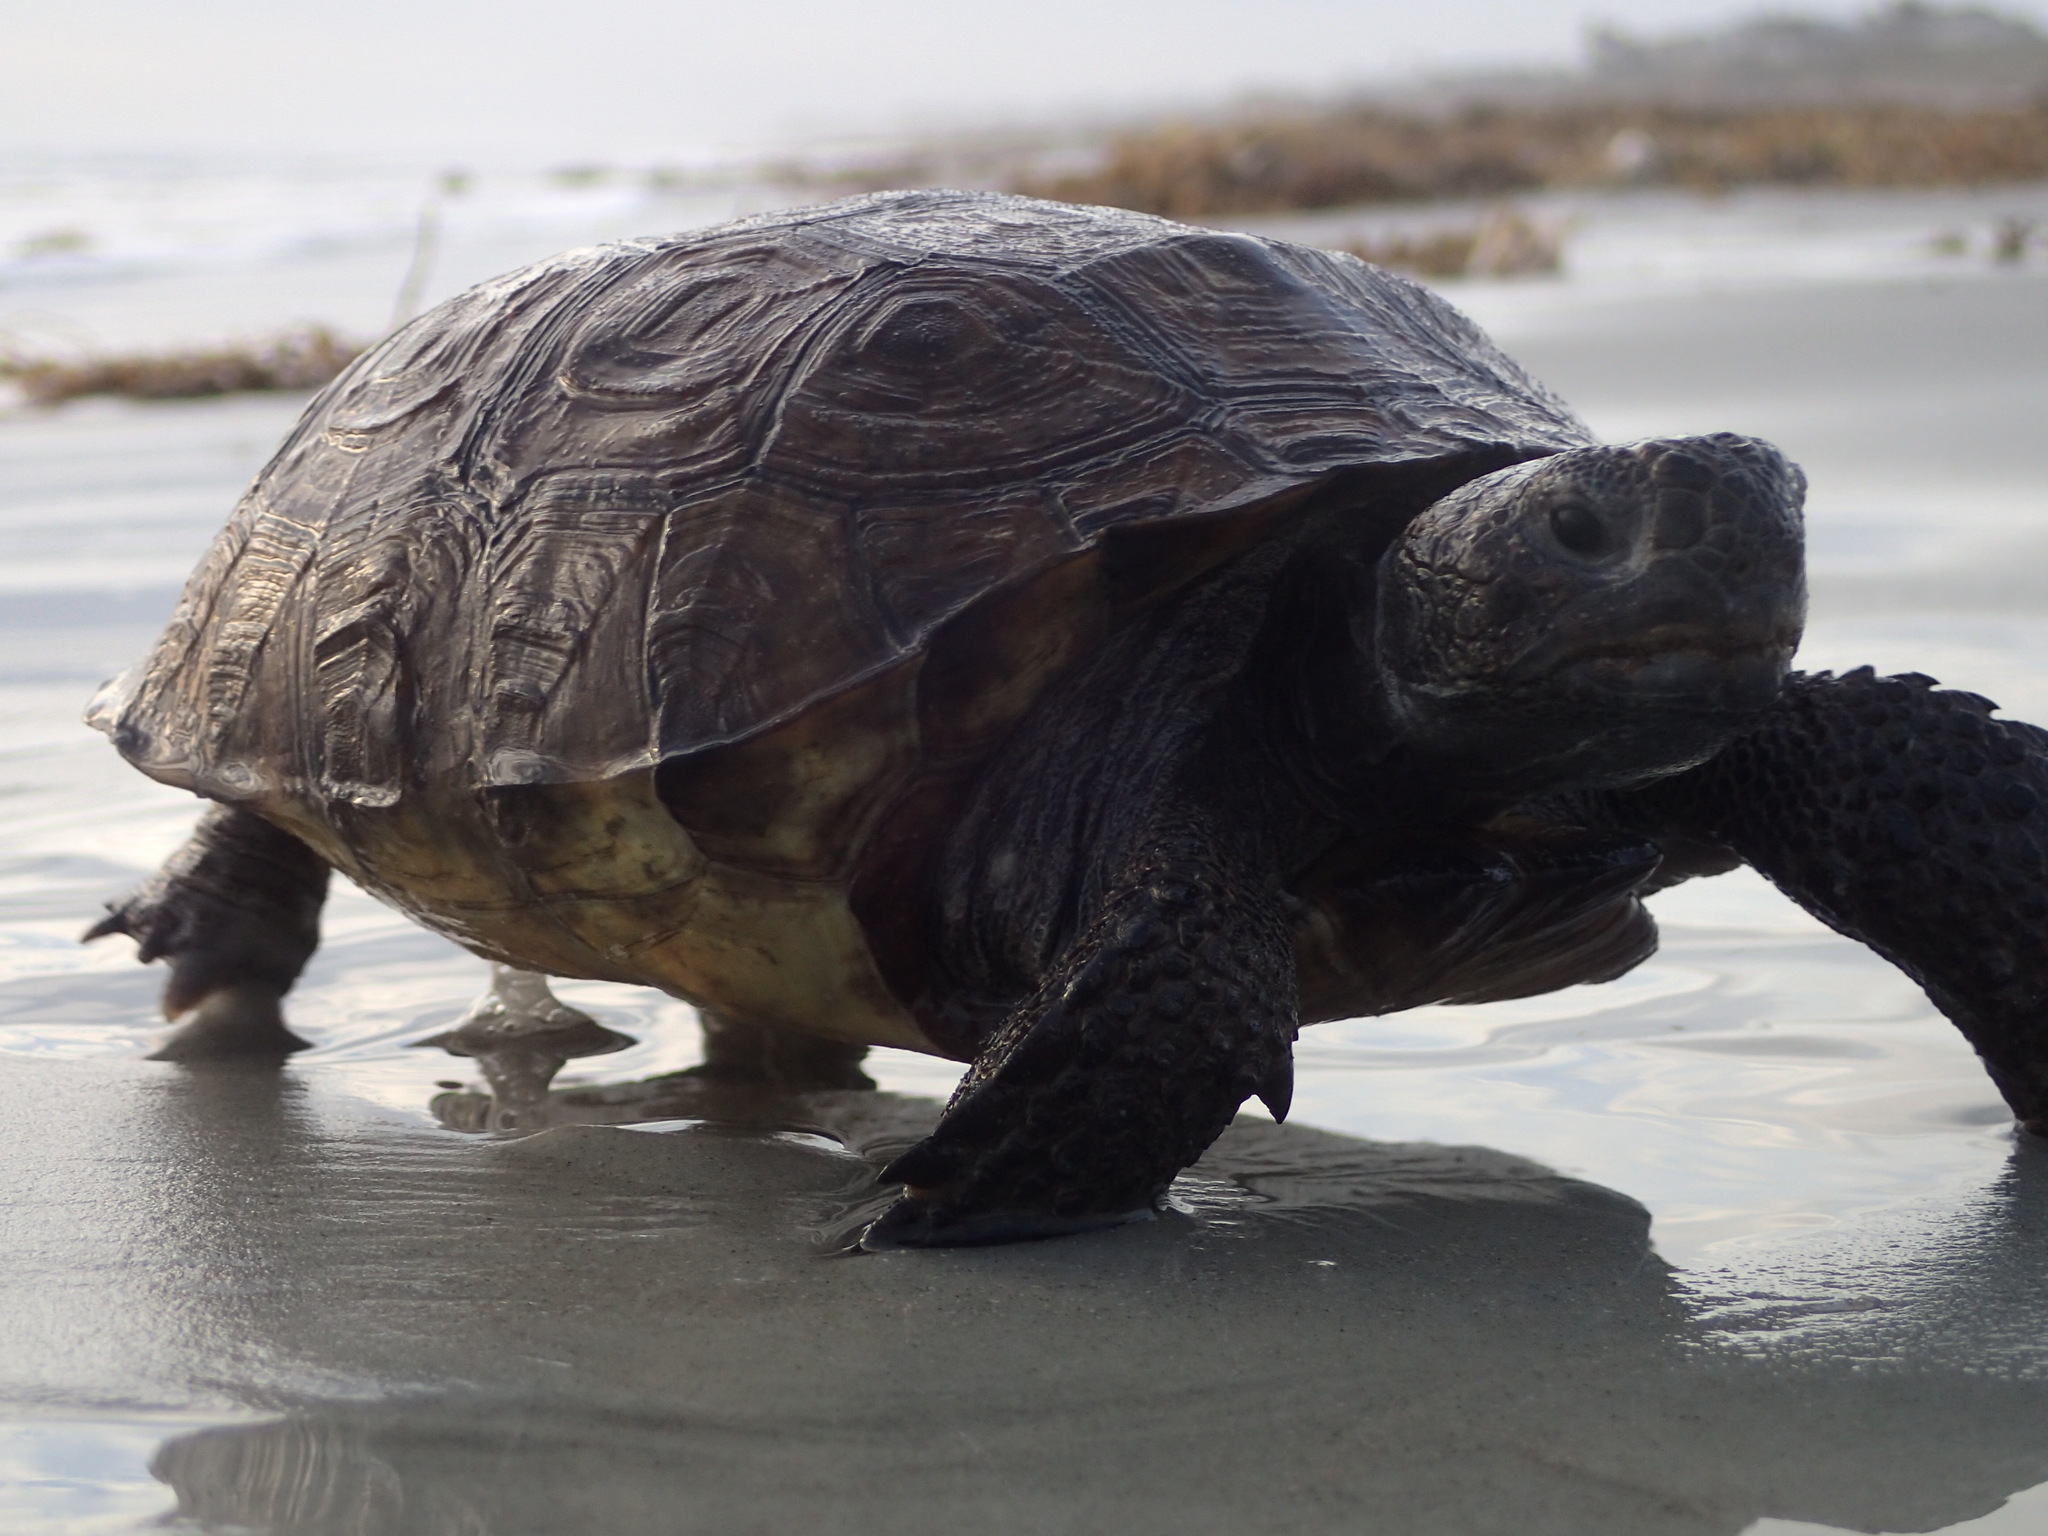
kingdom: Animalia
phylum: Chordata
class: Testudines
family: Testudinidae
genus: Gopherus
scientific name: Gopherus polyphemus
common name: Florida gopher tortoise
